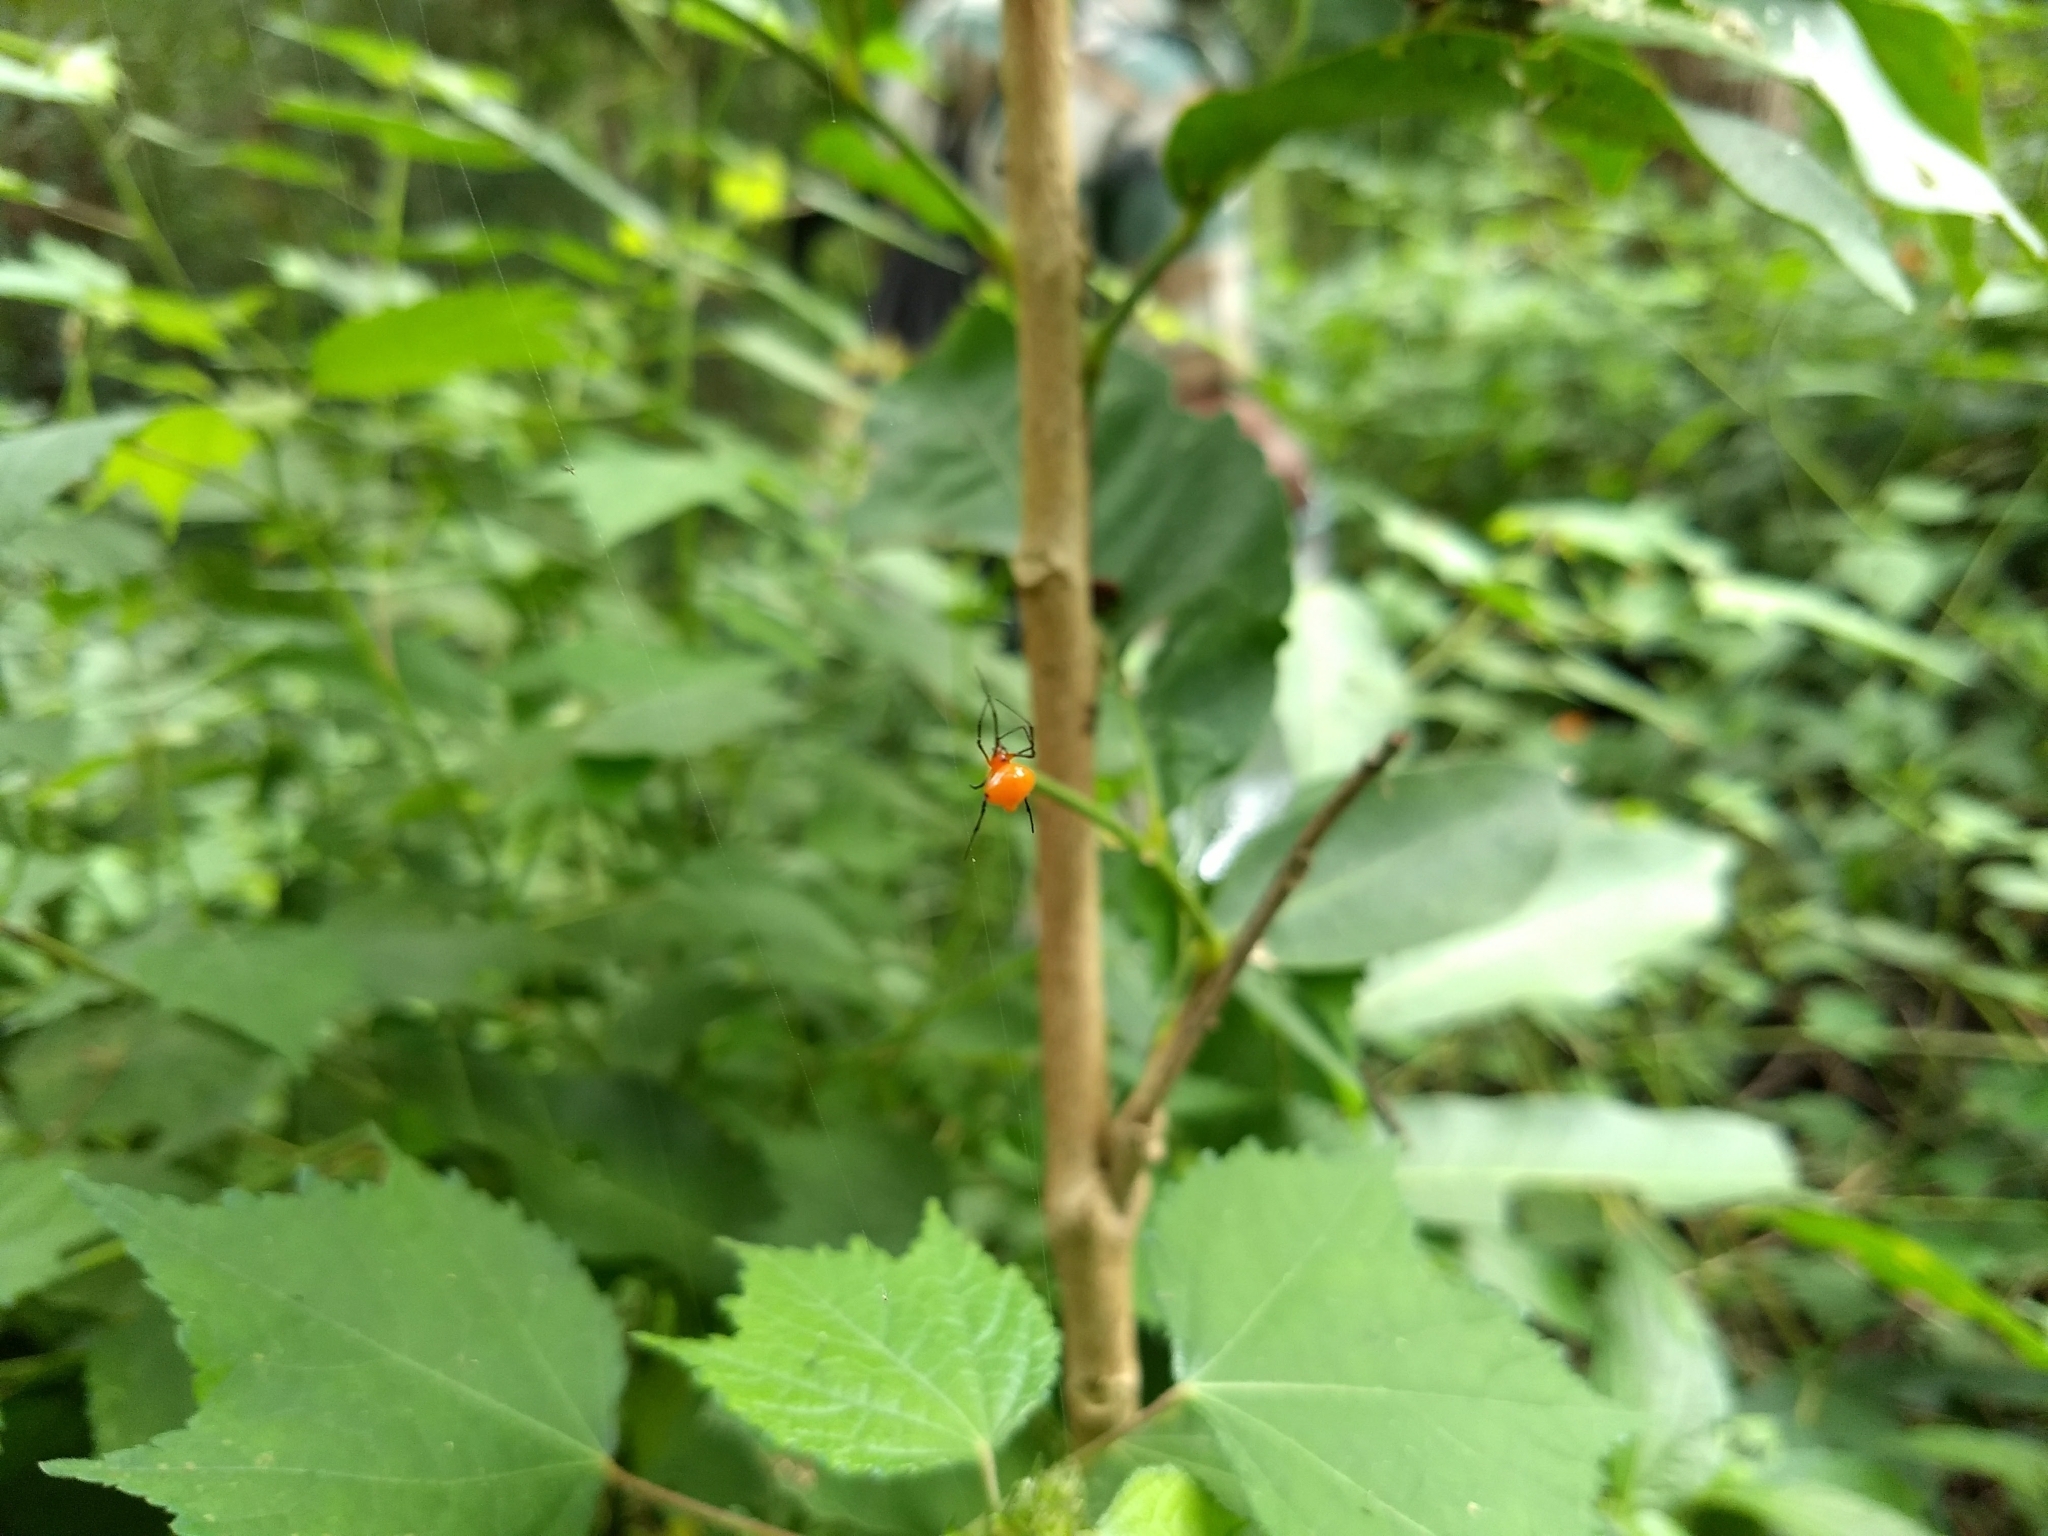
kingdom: Animalia
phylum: Arthropoda
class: Arachnida
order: Araneae
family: Theridiidae
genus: Argyrodes
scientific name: Argyrodes miniaceus
